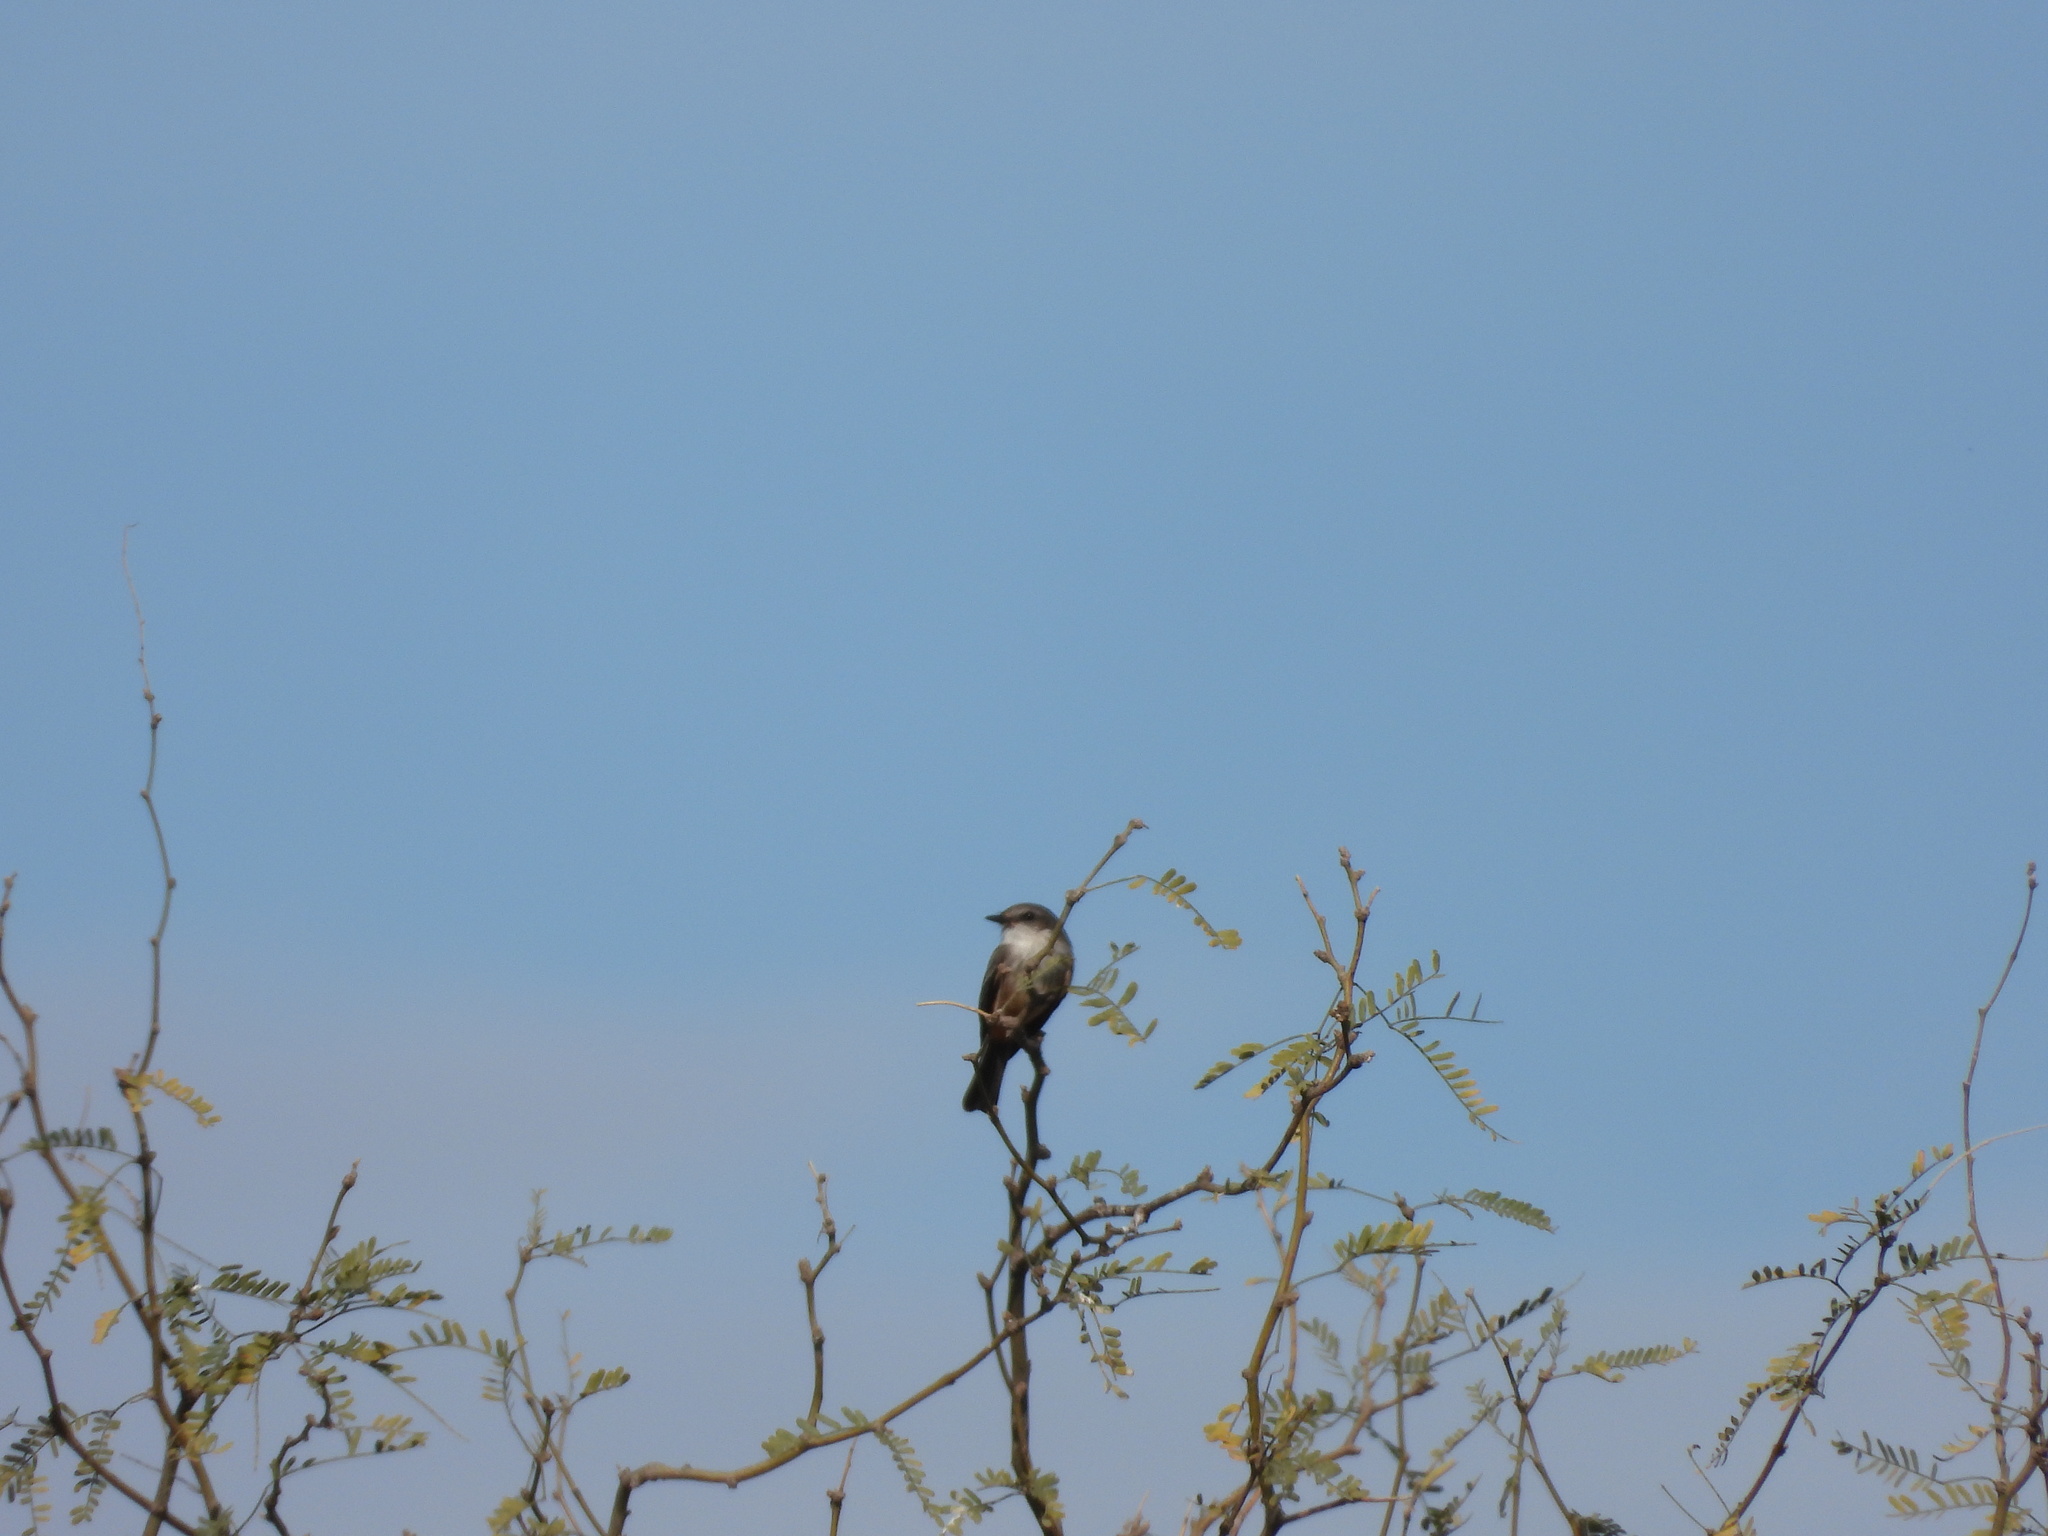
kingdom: Animalia
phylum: Chordata
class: Aves
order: Passeriformes
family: Tyrannidae
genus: Pyrocephalus
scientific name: Pyrocephalus rubinus
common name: Vermilion flycatcher
